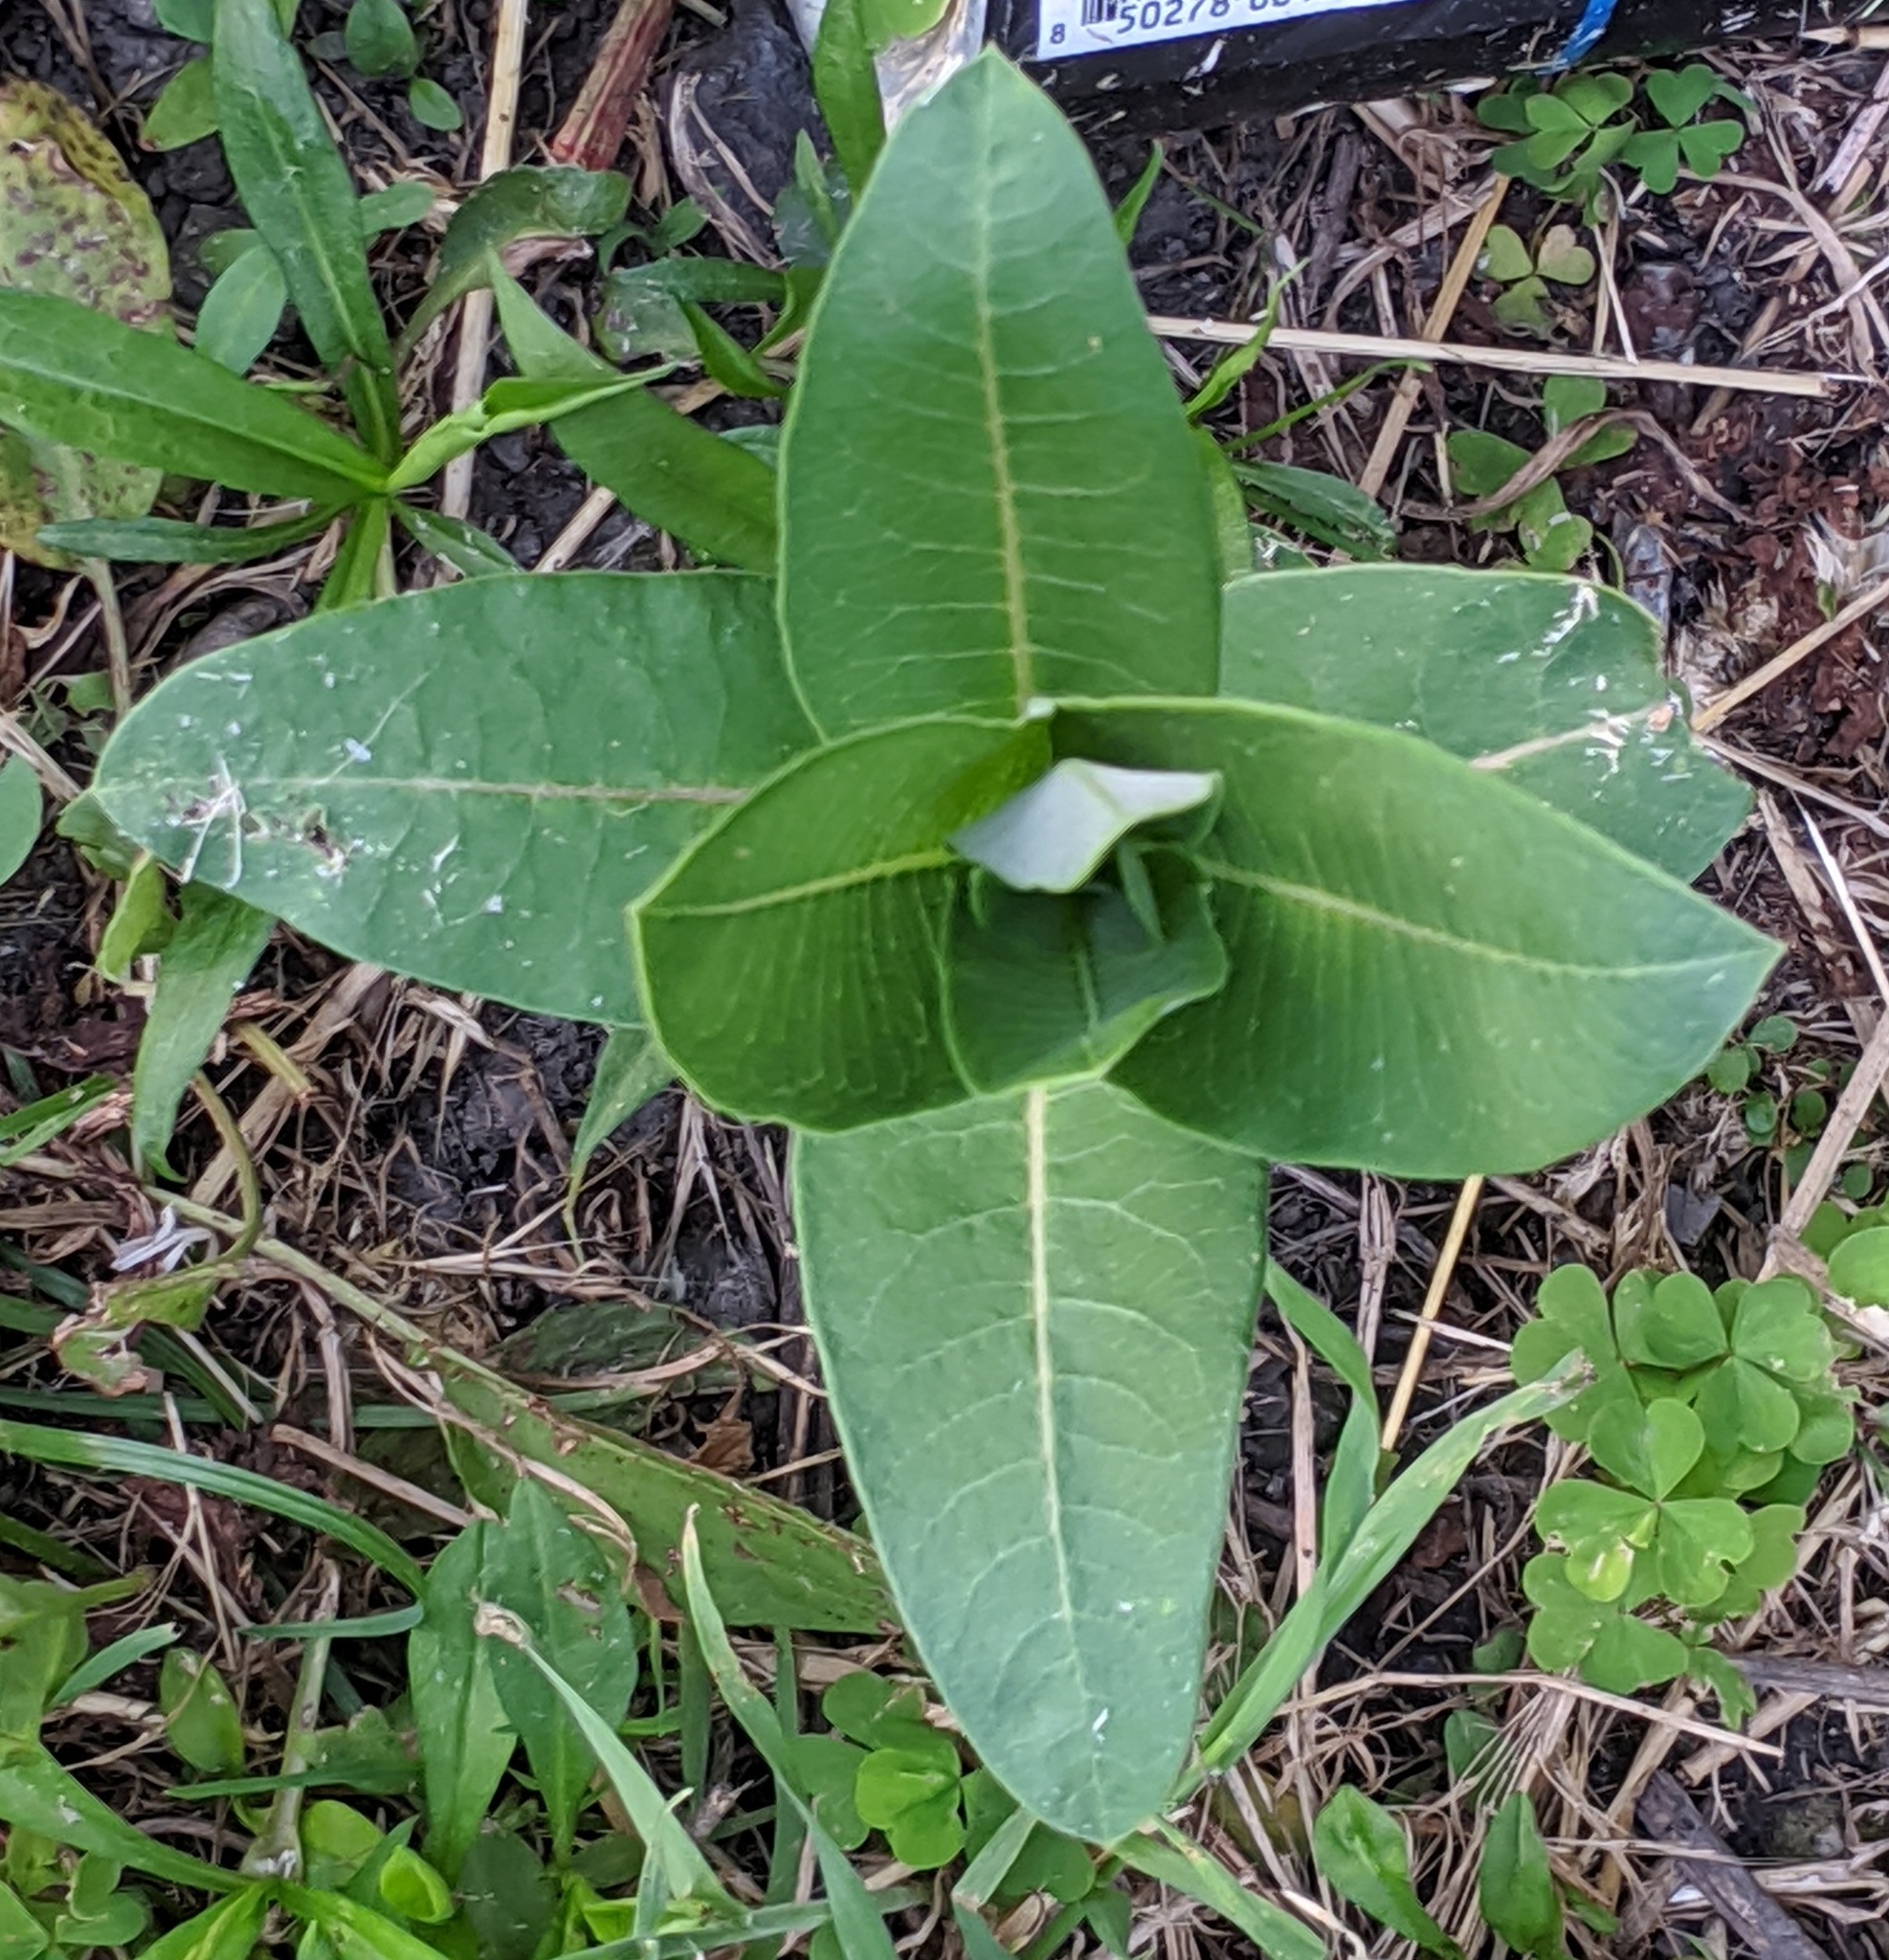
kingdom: Plantae
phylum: Tracheophyta
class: Magnoliopsida
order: Gentianales
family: Apocynaceae
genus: Asclepias
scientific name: Asclepias syriaca
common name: Common milkweed
